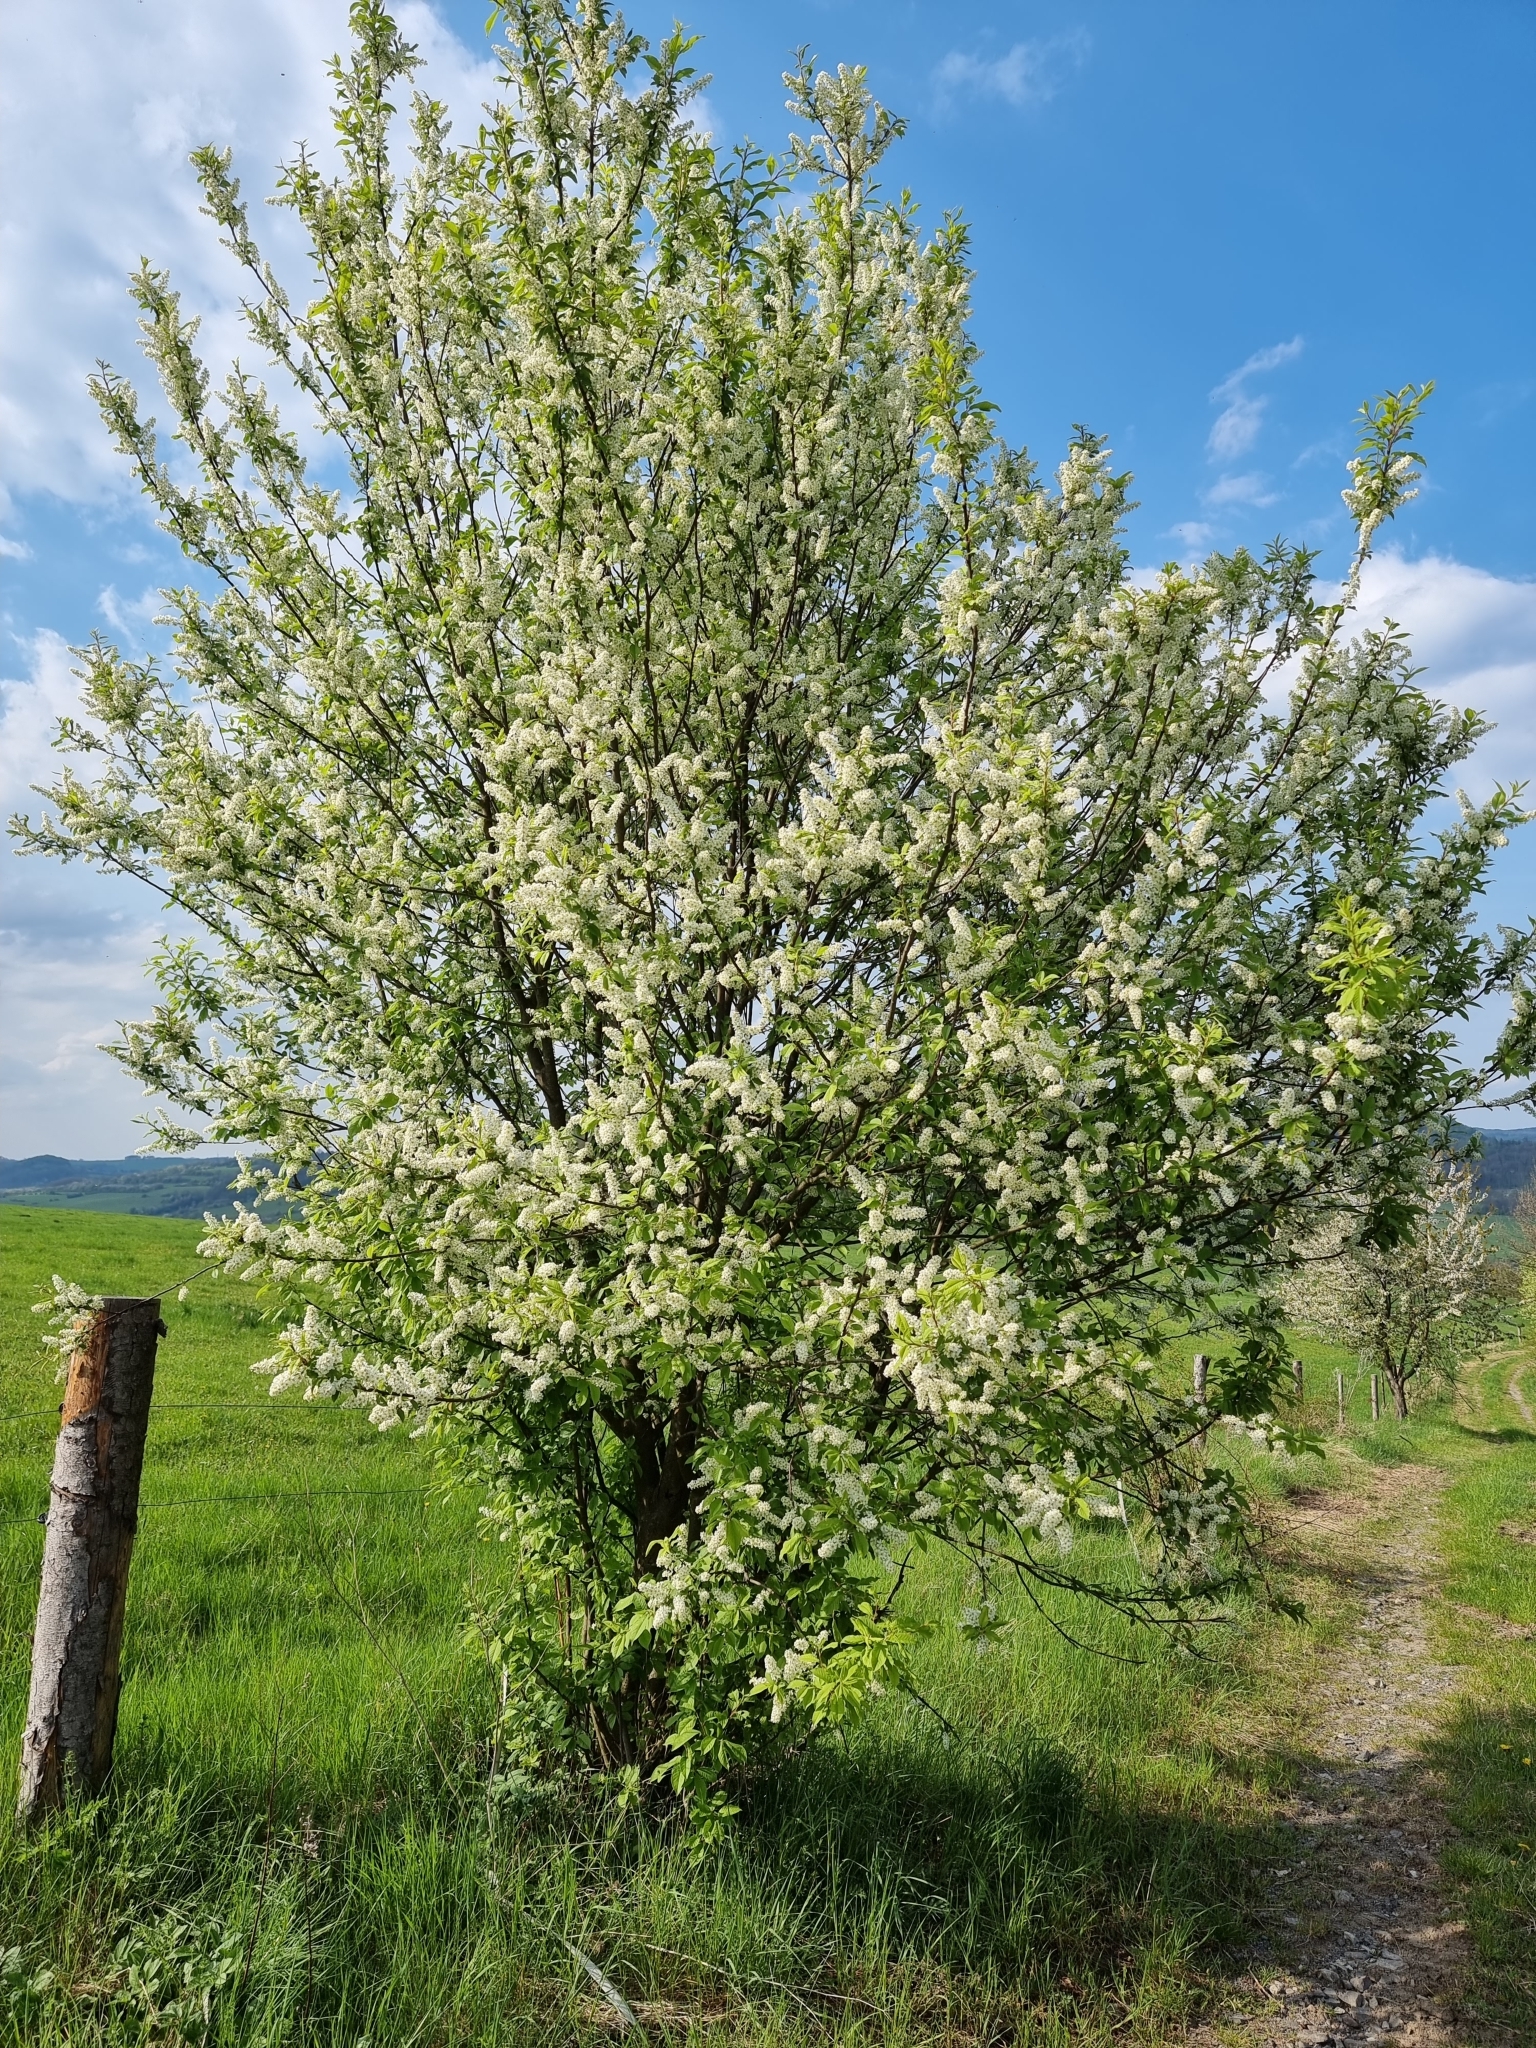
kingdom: Plantae
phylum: Tracheophyta
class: Magnoliopsida
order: Rosales
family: Rosaceae
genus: Prunus
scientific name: Prunus padus
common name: Bird cherry
